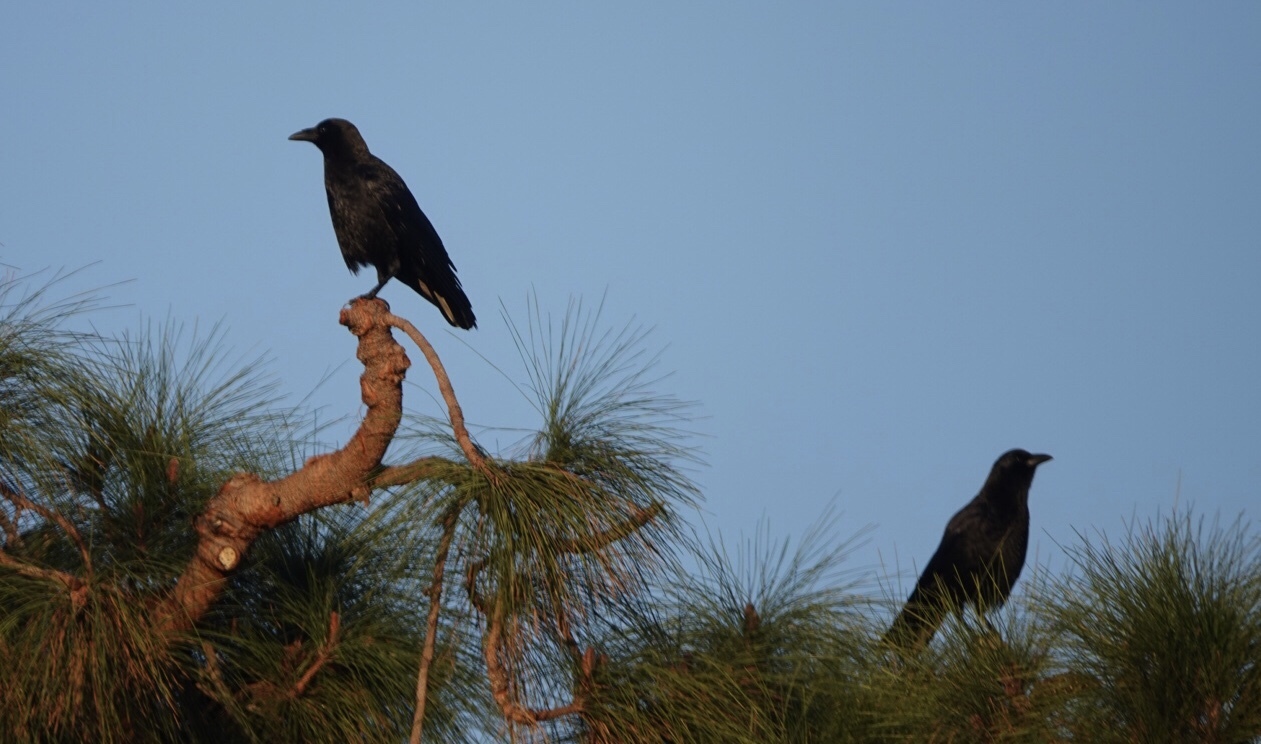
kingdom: Animalia
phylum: Chordata
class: Aves
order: Passeriformes
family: Corvidae
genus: Corvus
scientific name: Corvus brachyrhynchos
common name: American crow
